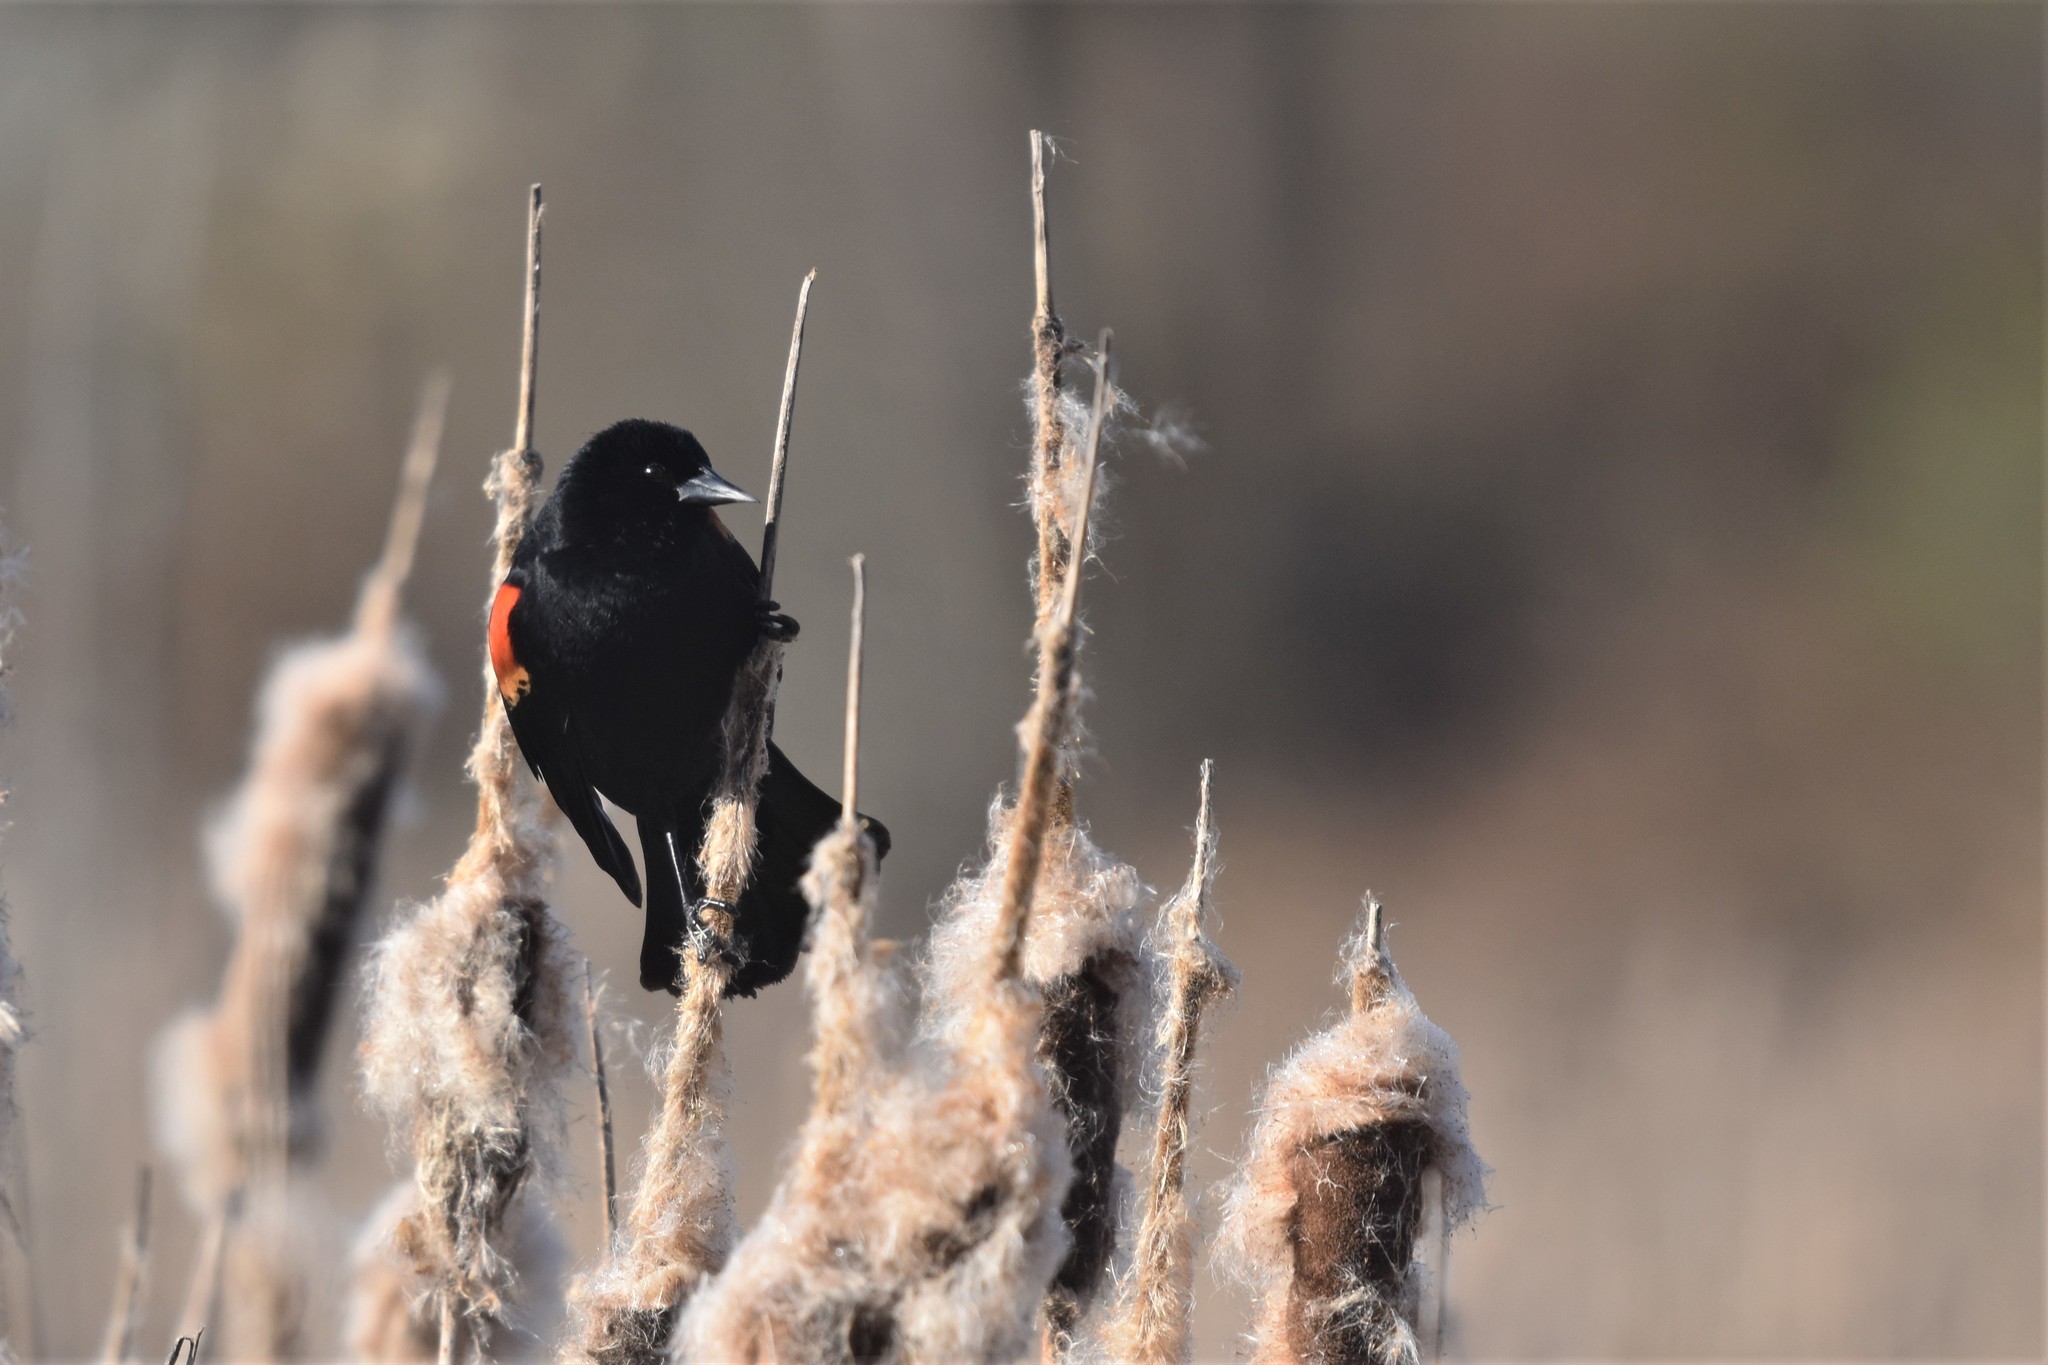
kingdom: Animalia
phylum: Chordata
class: Aves
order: Passeriformes
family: Icteridae
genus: Agelaius
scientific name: Agelaius phoeniceus
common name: Red-winged blackbird
